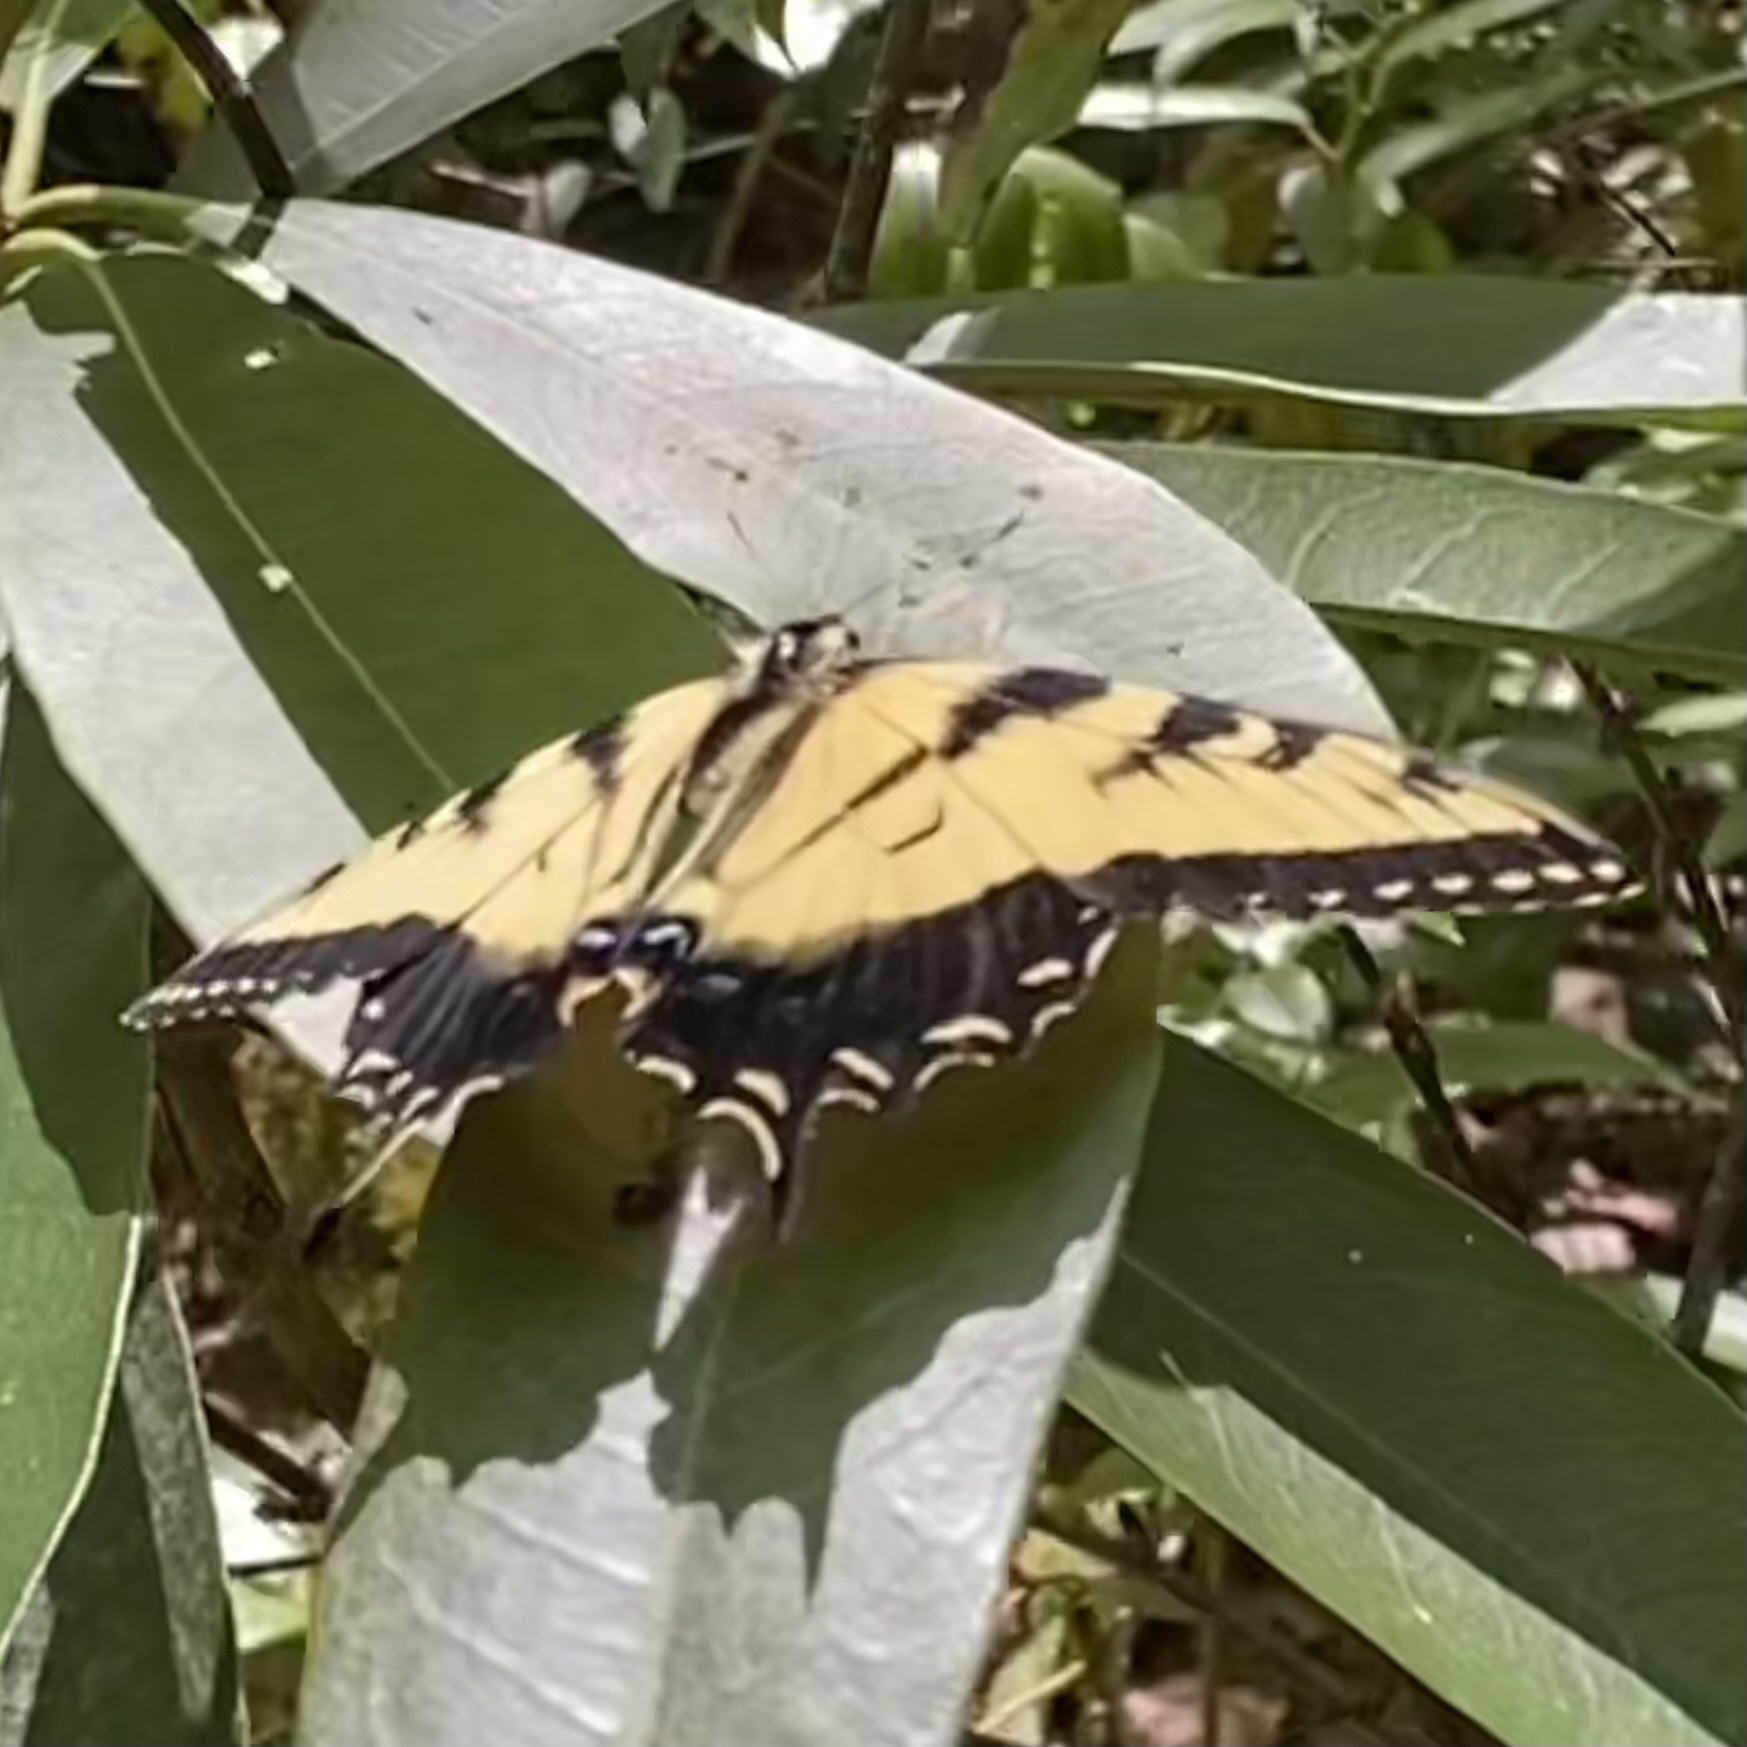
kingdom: Animalia
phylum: Arthropoda
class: Insecta
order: Lepidoptera
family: Papilionidae
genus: Papilio
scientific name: Papilio glaucus
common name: Tiger swallowtail
